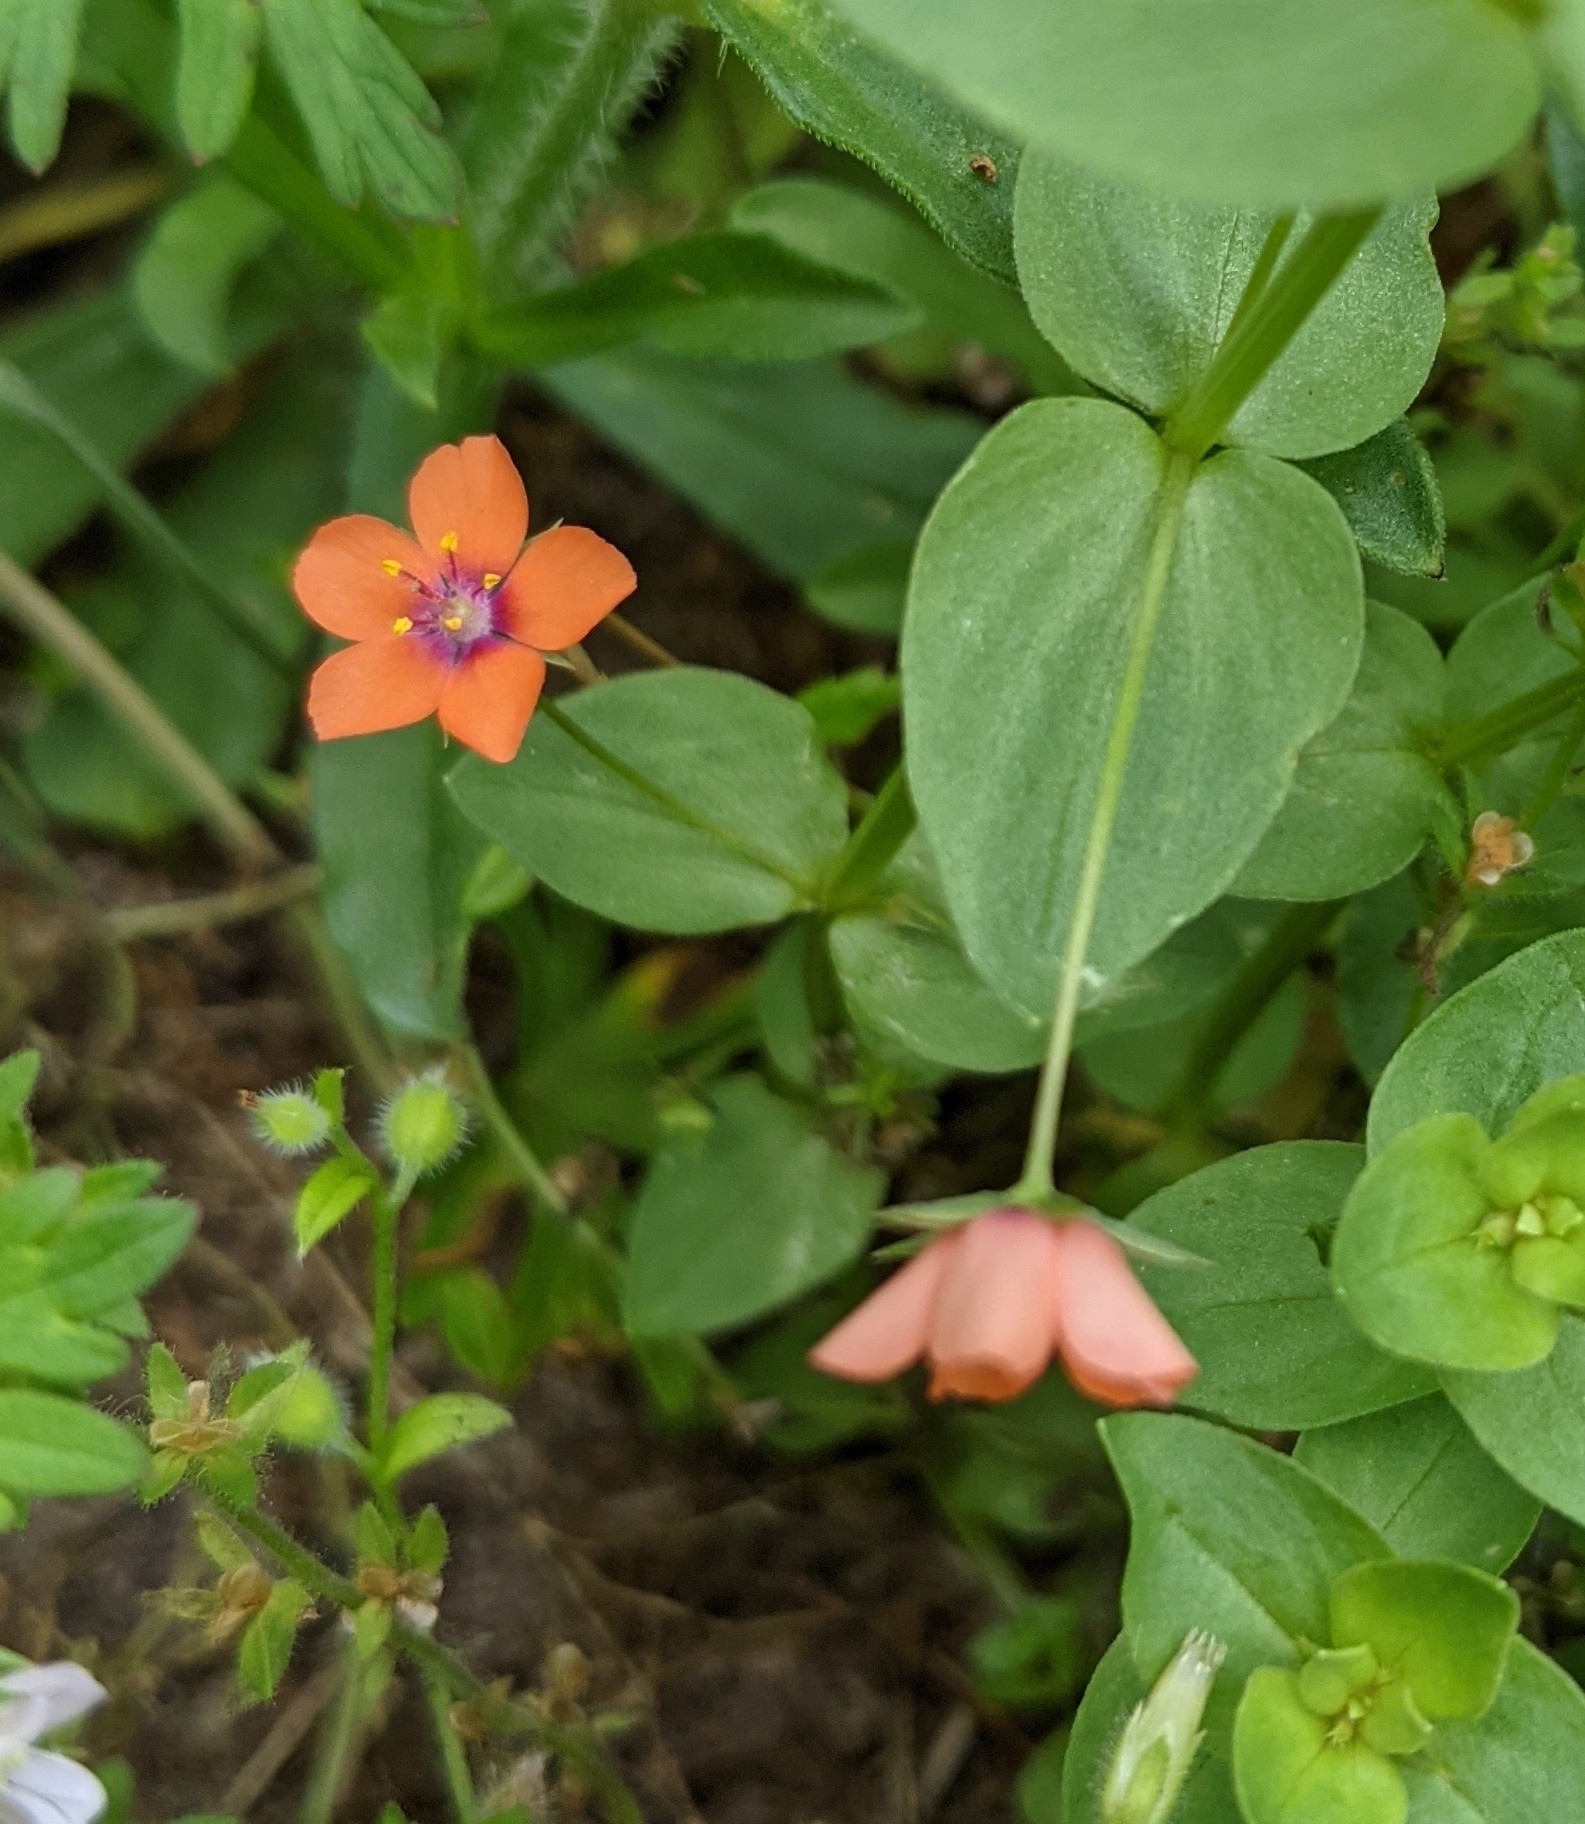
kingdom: Plantae
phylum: Tracheophyta
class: Magnoliopsida
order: Ericales
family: Primulaceae
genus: Lysimachia
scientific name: Lysimachia arvensis
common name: Scarlet pimpernel
